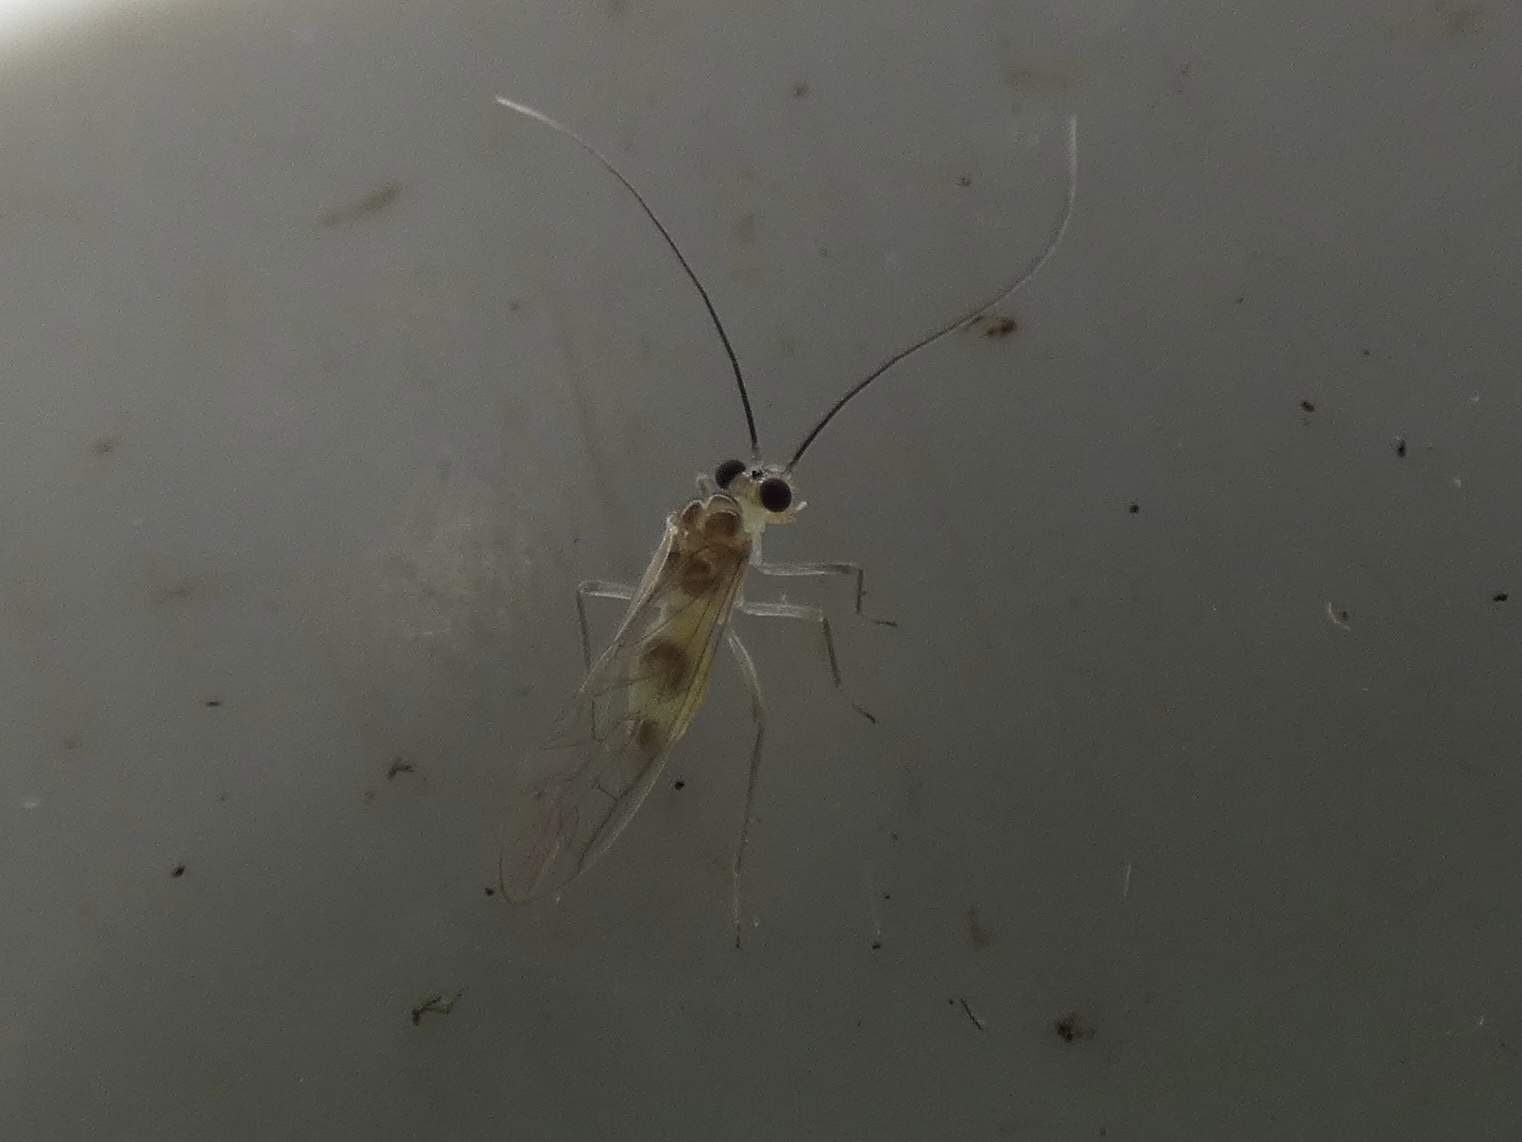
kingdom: Animalia
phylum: Arthropoda
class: Insecta
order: Psocodea
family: Stenopsocidae
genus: Stenopsocus
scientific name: Stenopsocus immaculatus
